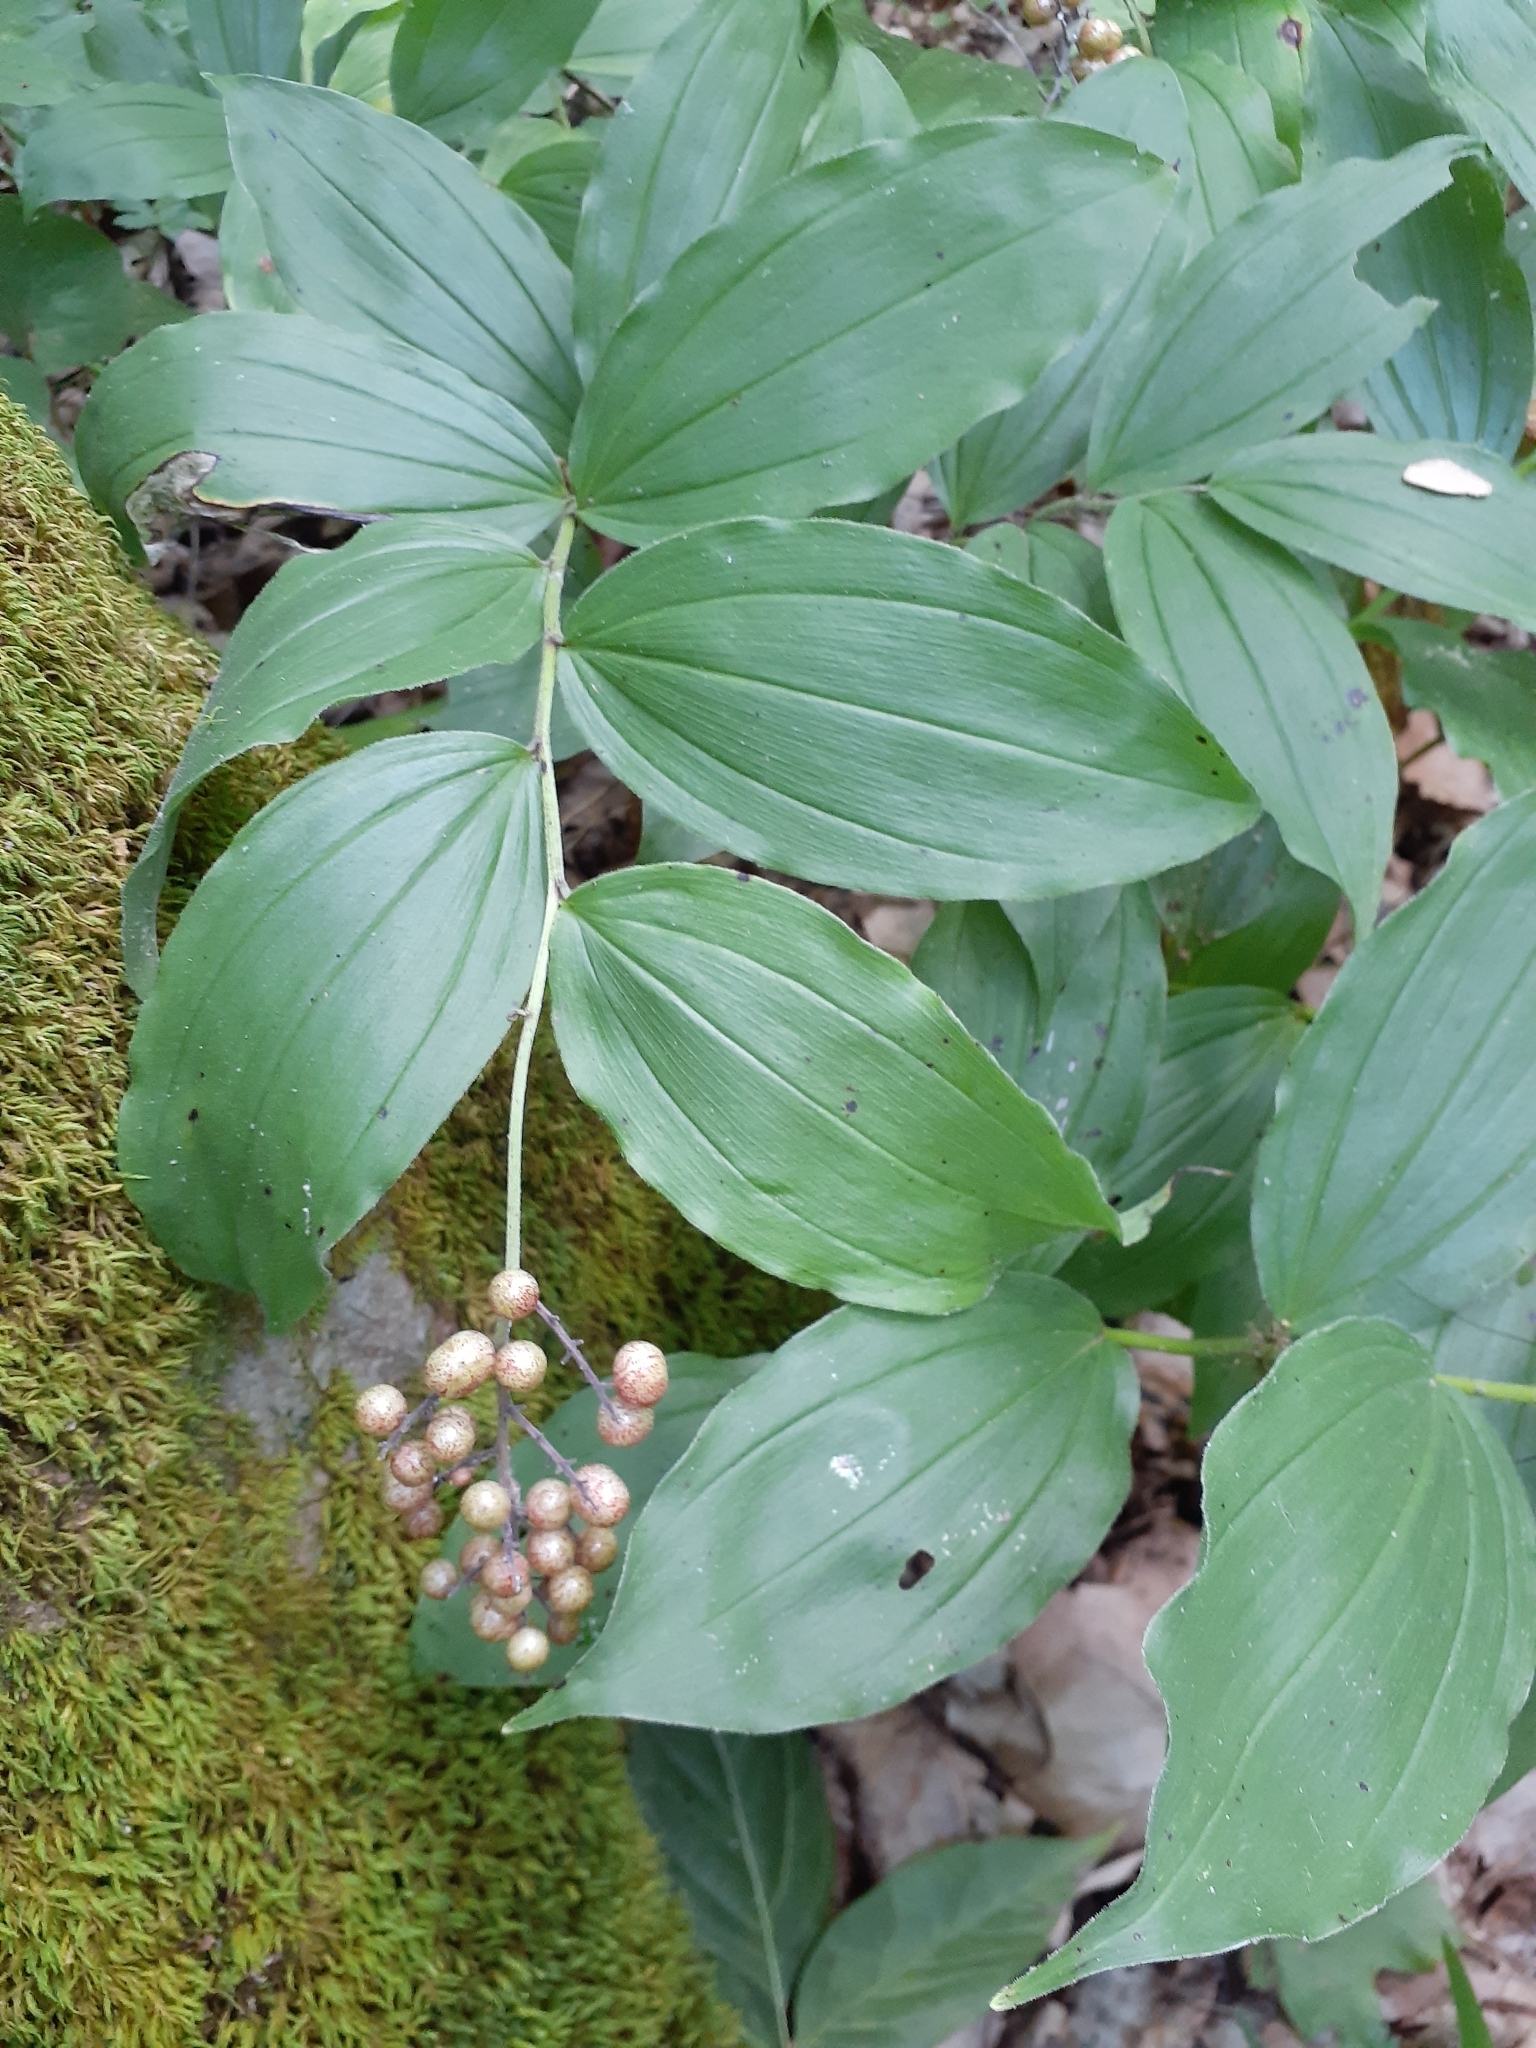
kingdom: Plantae
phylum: Tracheophyta
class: Liliopsida
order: Asparagales
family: Asparagaceae
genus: Maianthemum
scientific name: Maianthemum racemosum
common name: False spikenard
